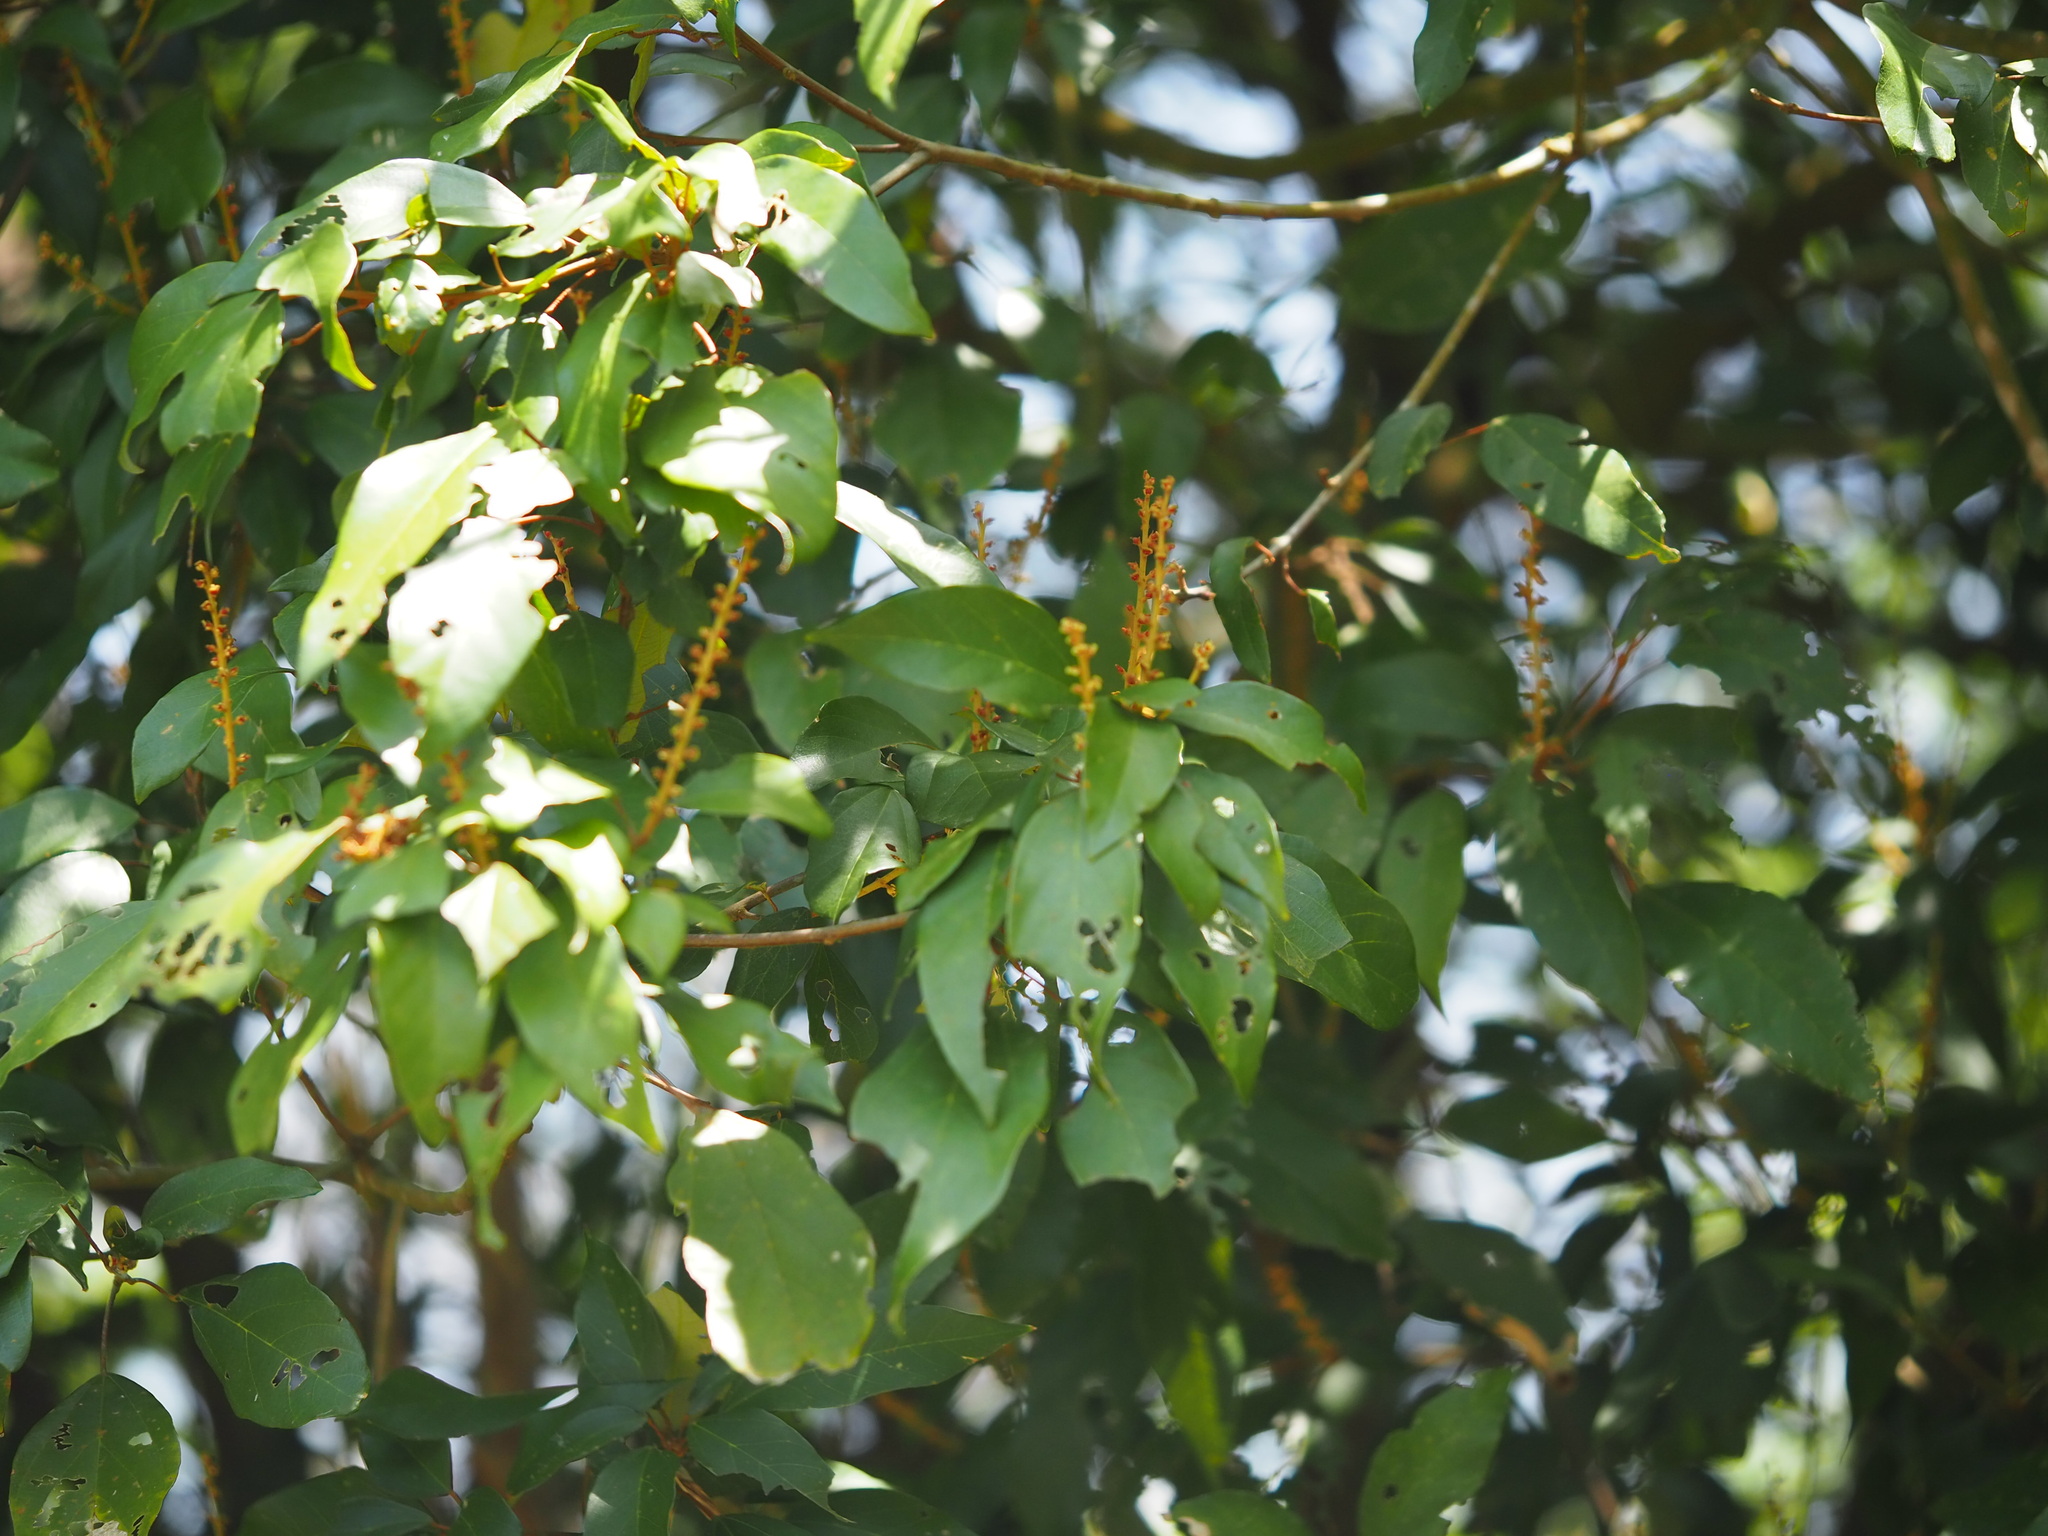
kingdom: Plantae
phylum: Tracheophyta
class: Magnoliopsida
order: Malpighiales
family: Euphorbiaceae
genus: Mallotus
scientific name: Mallotus philippensis
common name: Kamala tree
